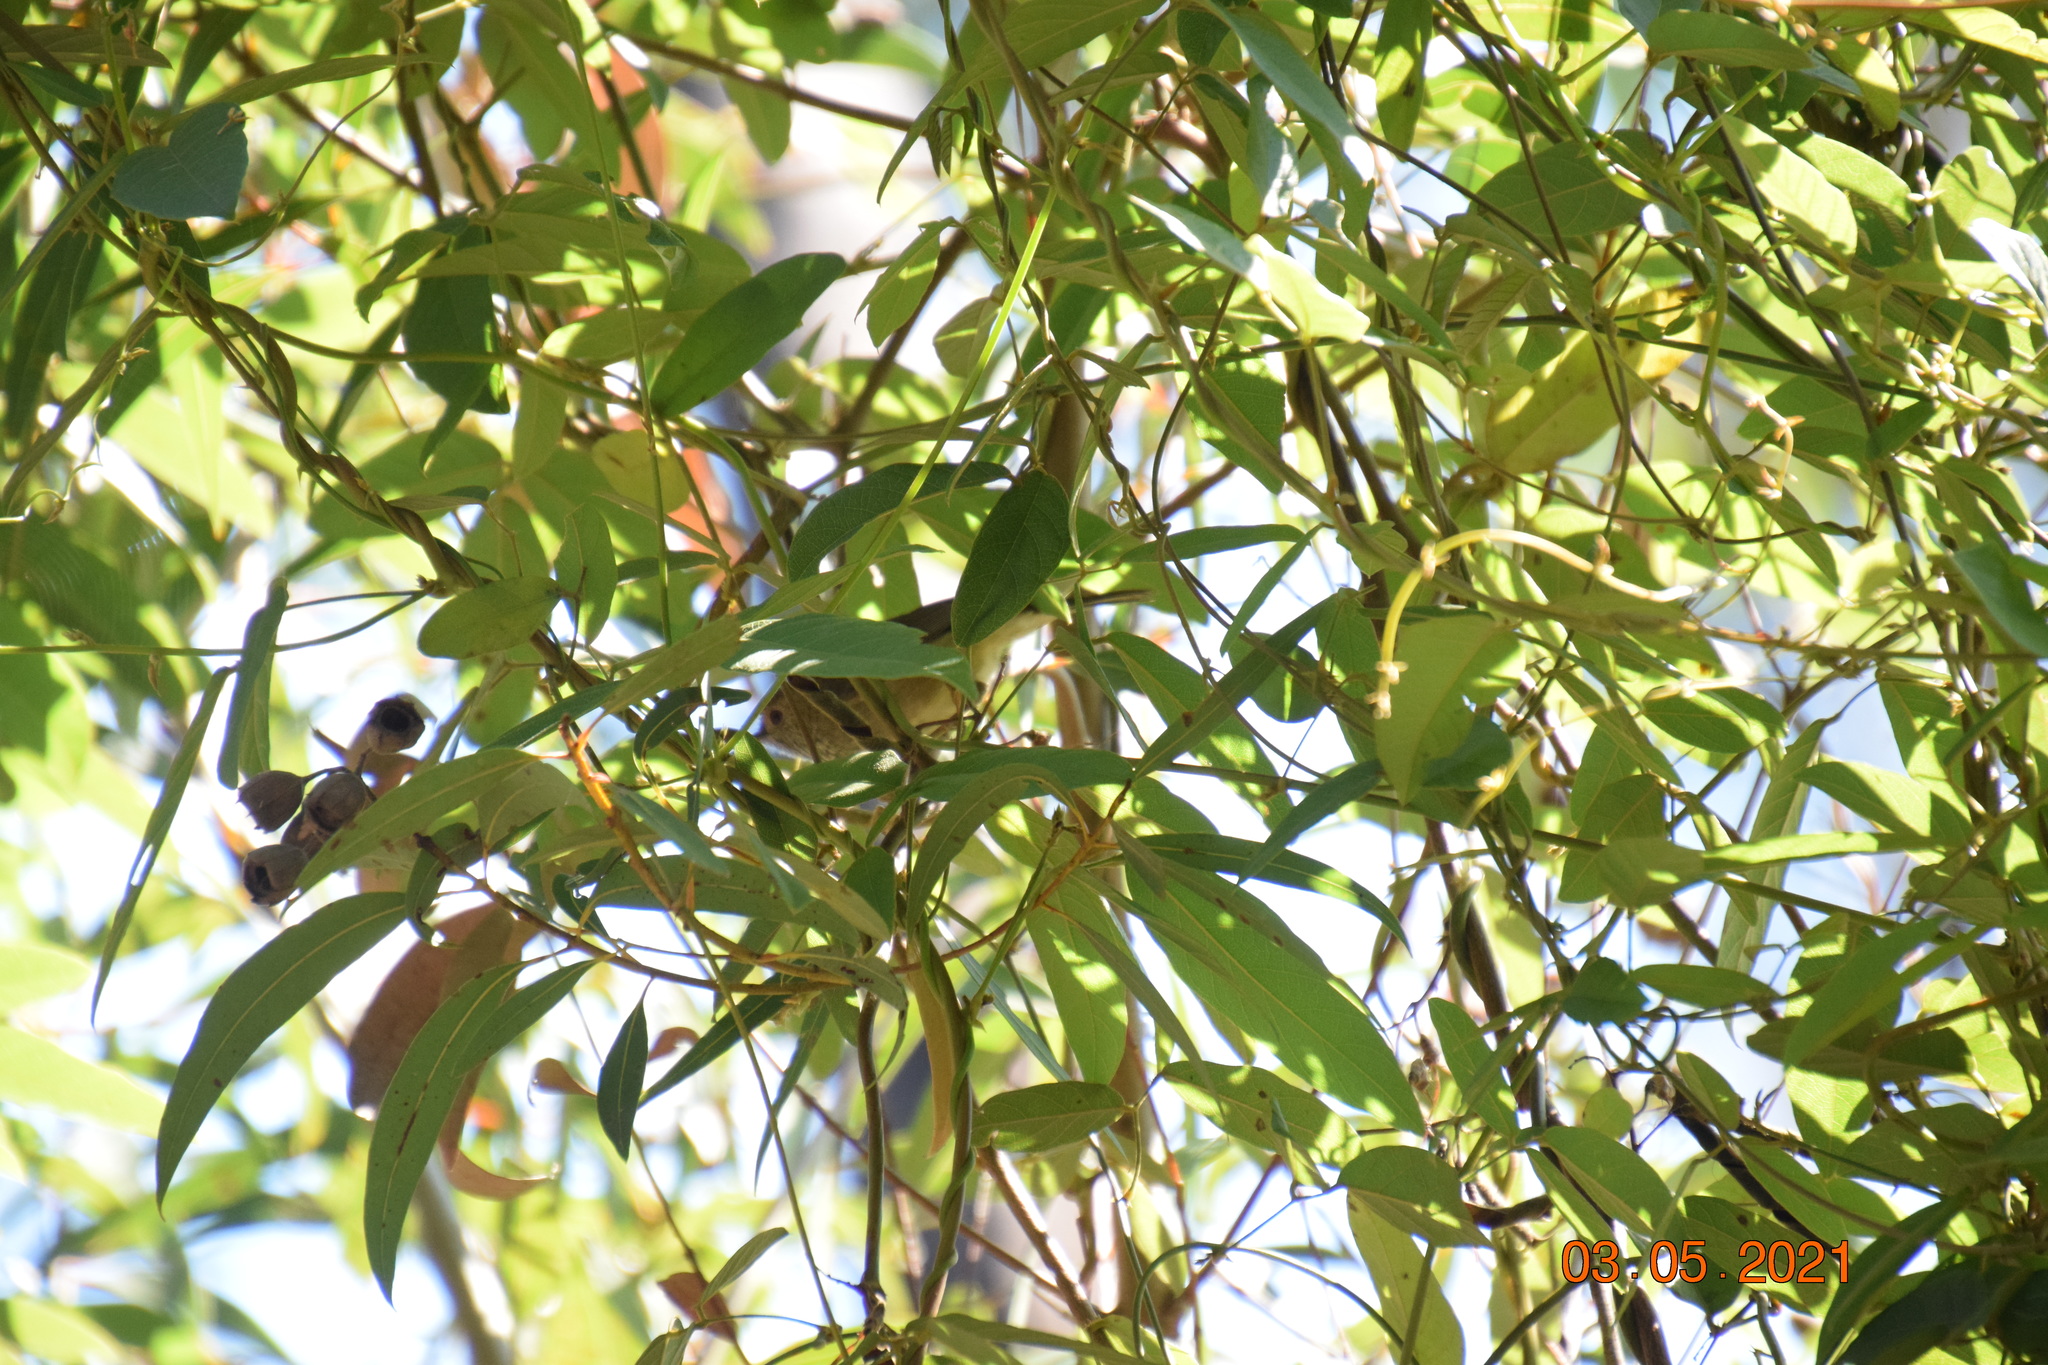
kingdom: Animalia
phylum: Chordata
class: Aves
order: Passeriformes
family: Acanthizidae
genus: Acanthiza
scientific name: Acanthiza pusilla
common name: Brown thornbill
